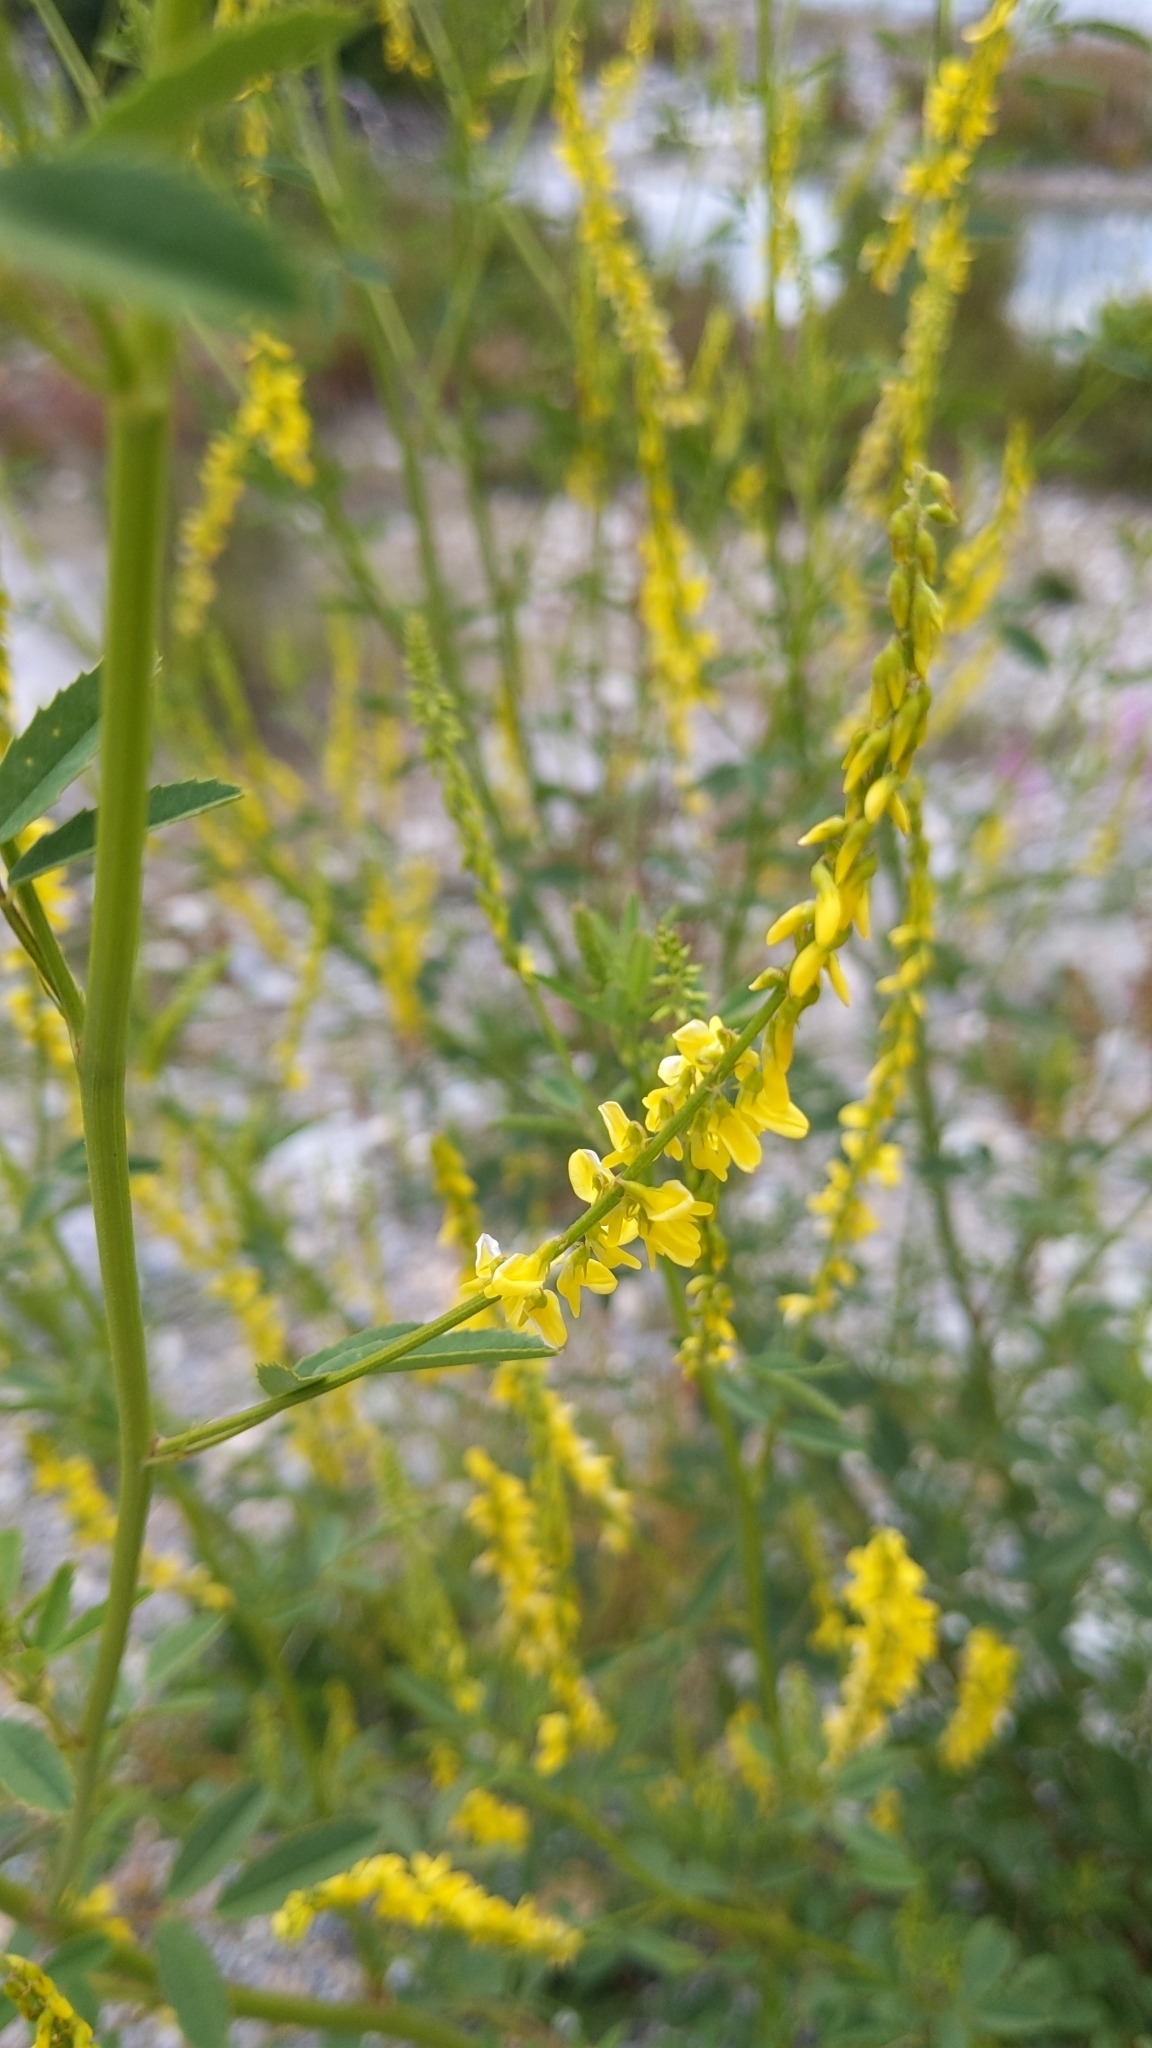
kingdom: Plantae
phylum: Tracheophyta
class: Magnoliopsida
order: Fabales
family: Fabaceae
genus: Melilotus
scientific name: Melilotus officinalis
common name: Sweetclover
